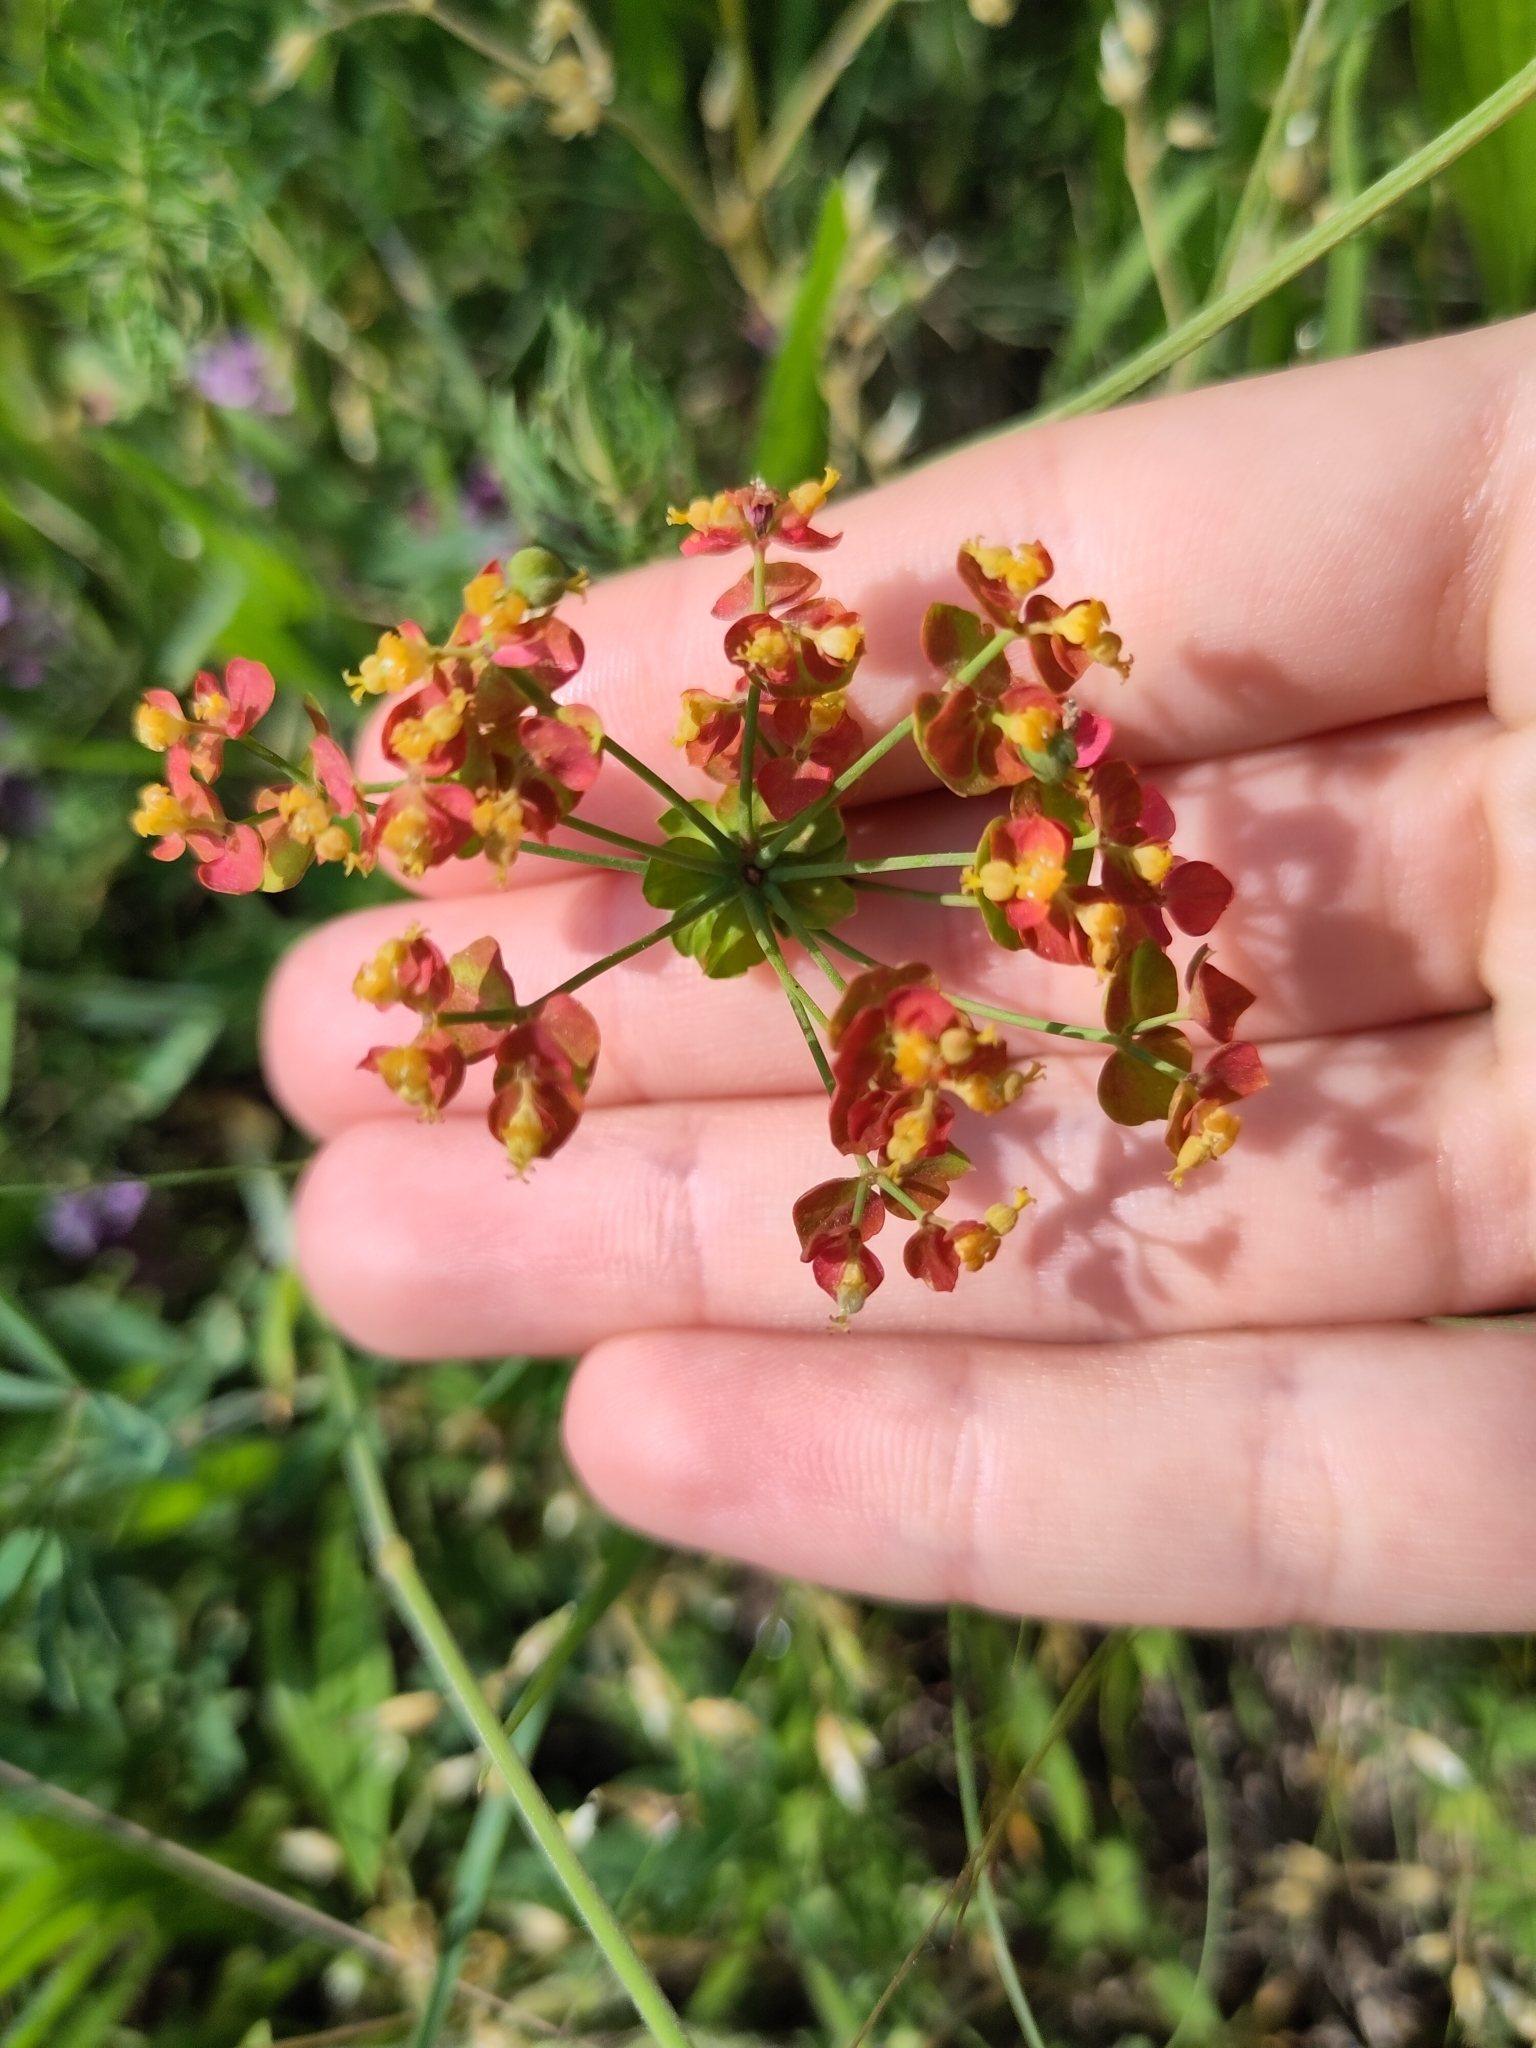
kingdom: Plantae
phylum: Tracheophyta
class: Magnoliopsida
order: Malpighiales
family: Euphorbiaceae
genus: Euphorbia
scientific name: Euphorbia cyparissias
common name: Cypress spurge
